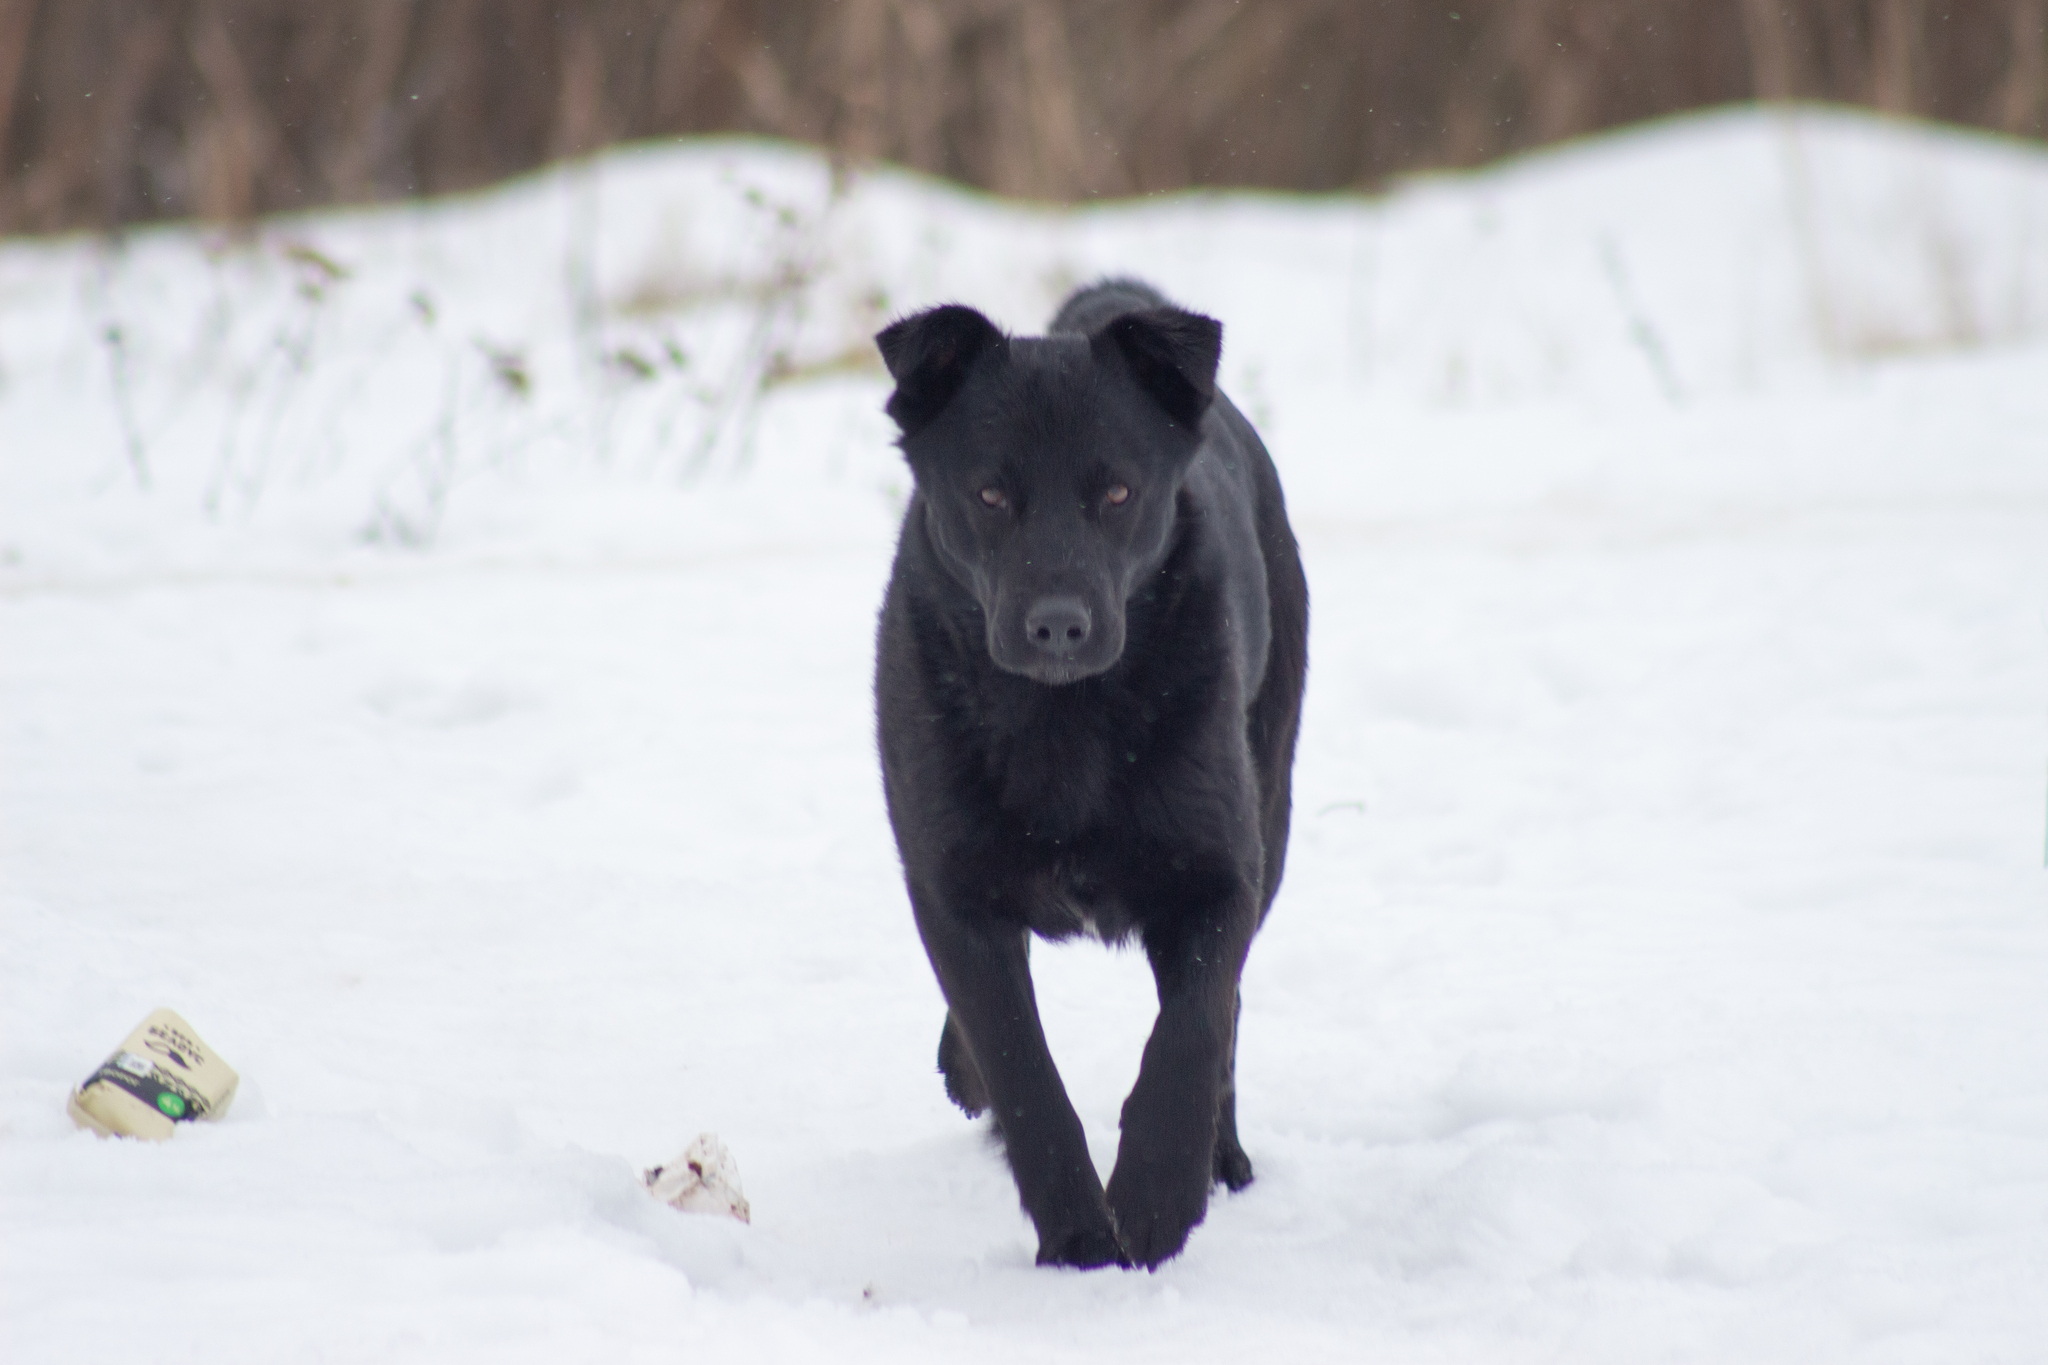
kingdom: Animalia
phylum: Chordata
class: Mammalia
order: Carnivora
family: Canidae
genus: Canis
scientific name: Canis lupus
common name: Gray wolf
